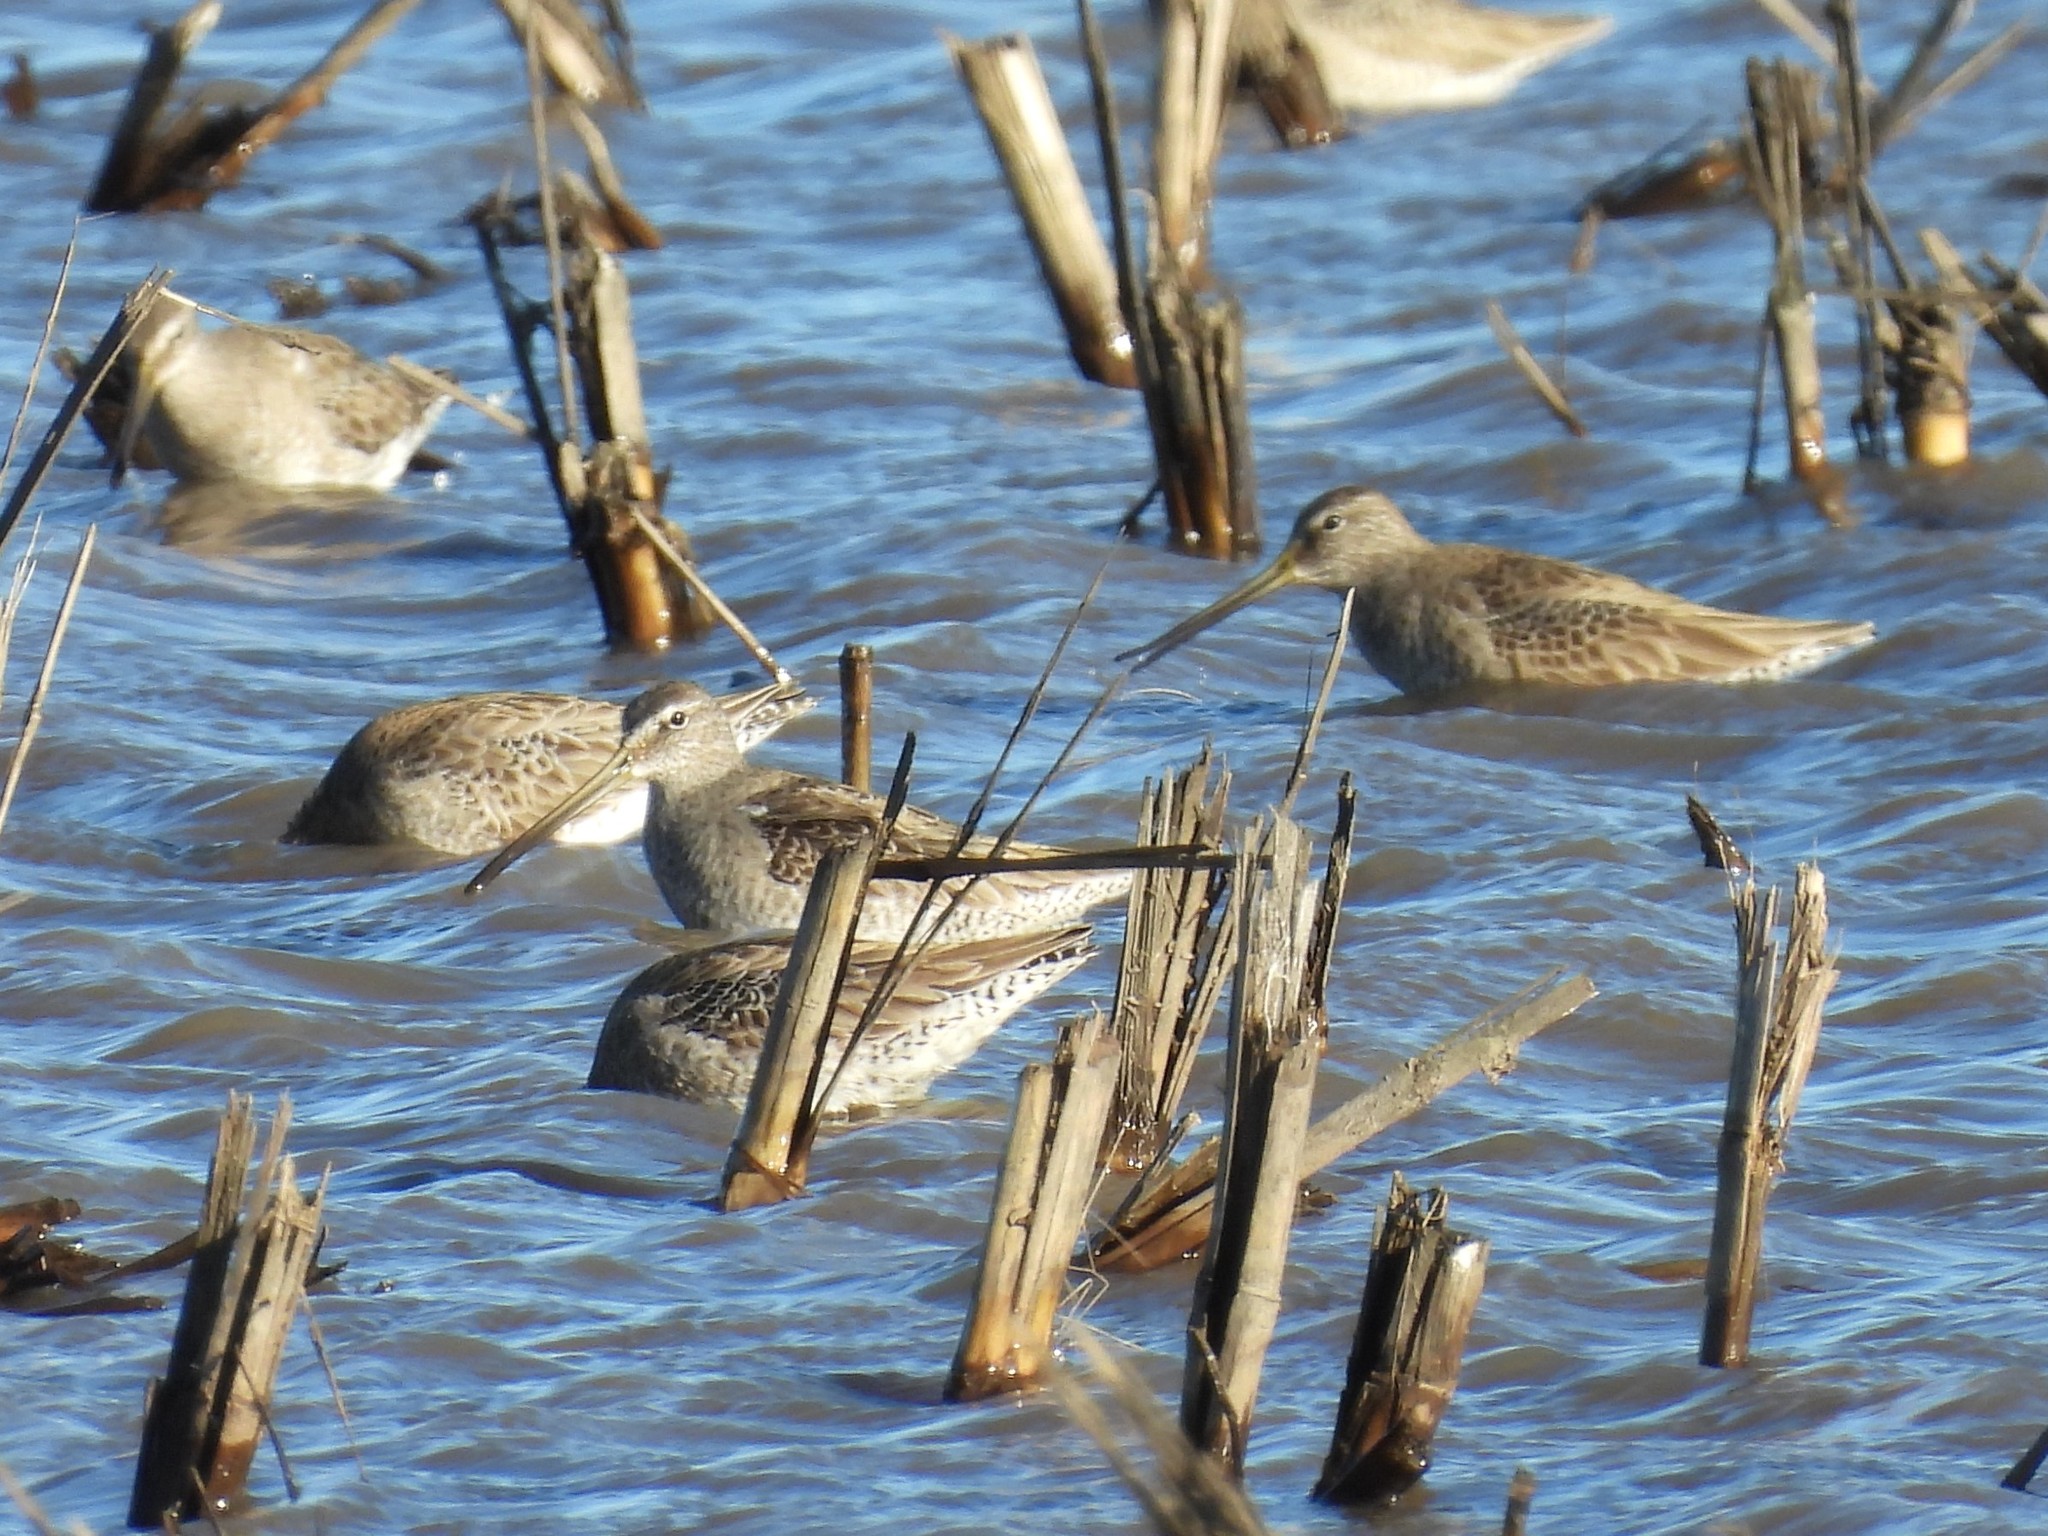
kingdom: Animalia
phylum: Chordata
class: Aves
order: Charadriiformes
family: Scolopacidae
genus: Limnodromus
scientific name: Limnodromus scolopaceus
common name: Long-billed dowitcher
